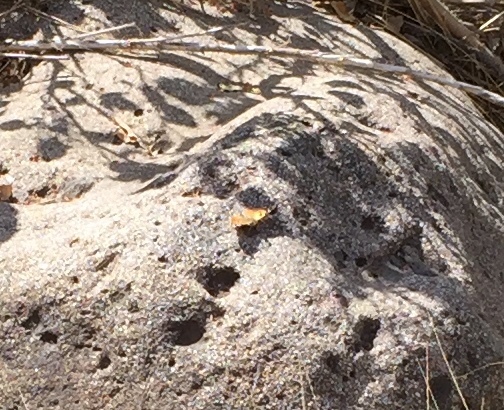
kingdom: Animalia
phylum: Arthropoda
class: Insecta
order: Lepidoptera
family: Nymphalidae
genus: Vanessa
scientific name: Vanessa cardui
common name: Painted lady
